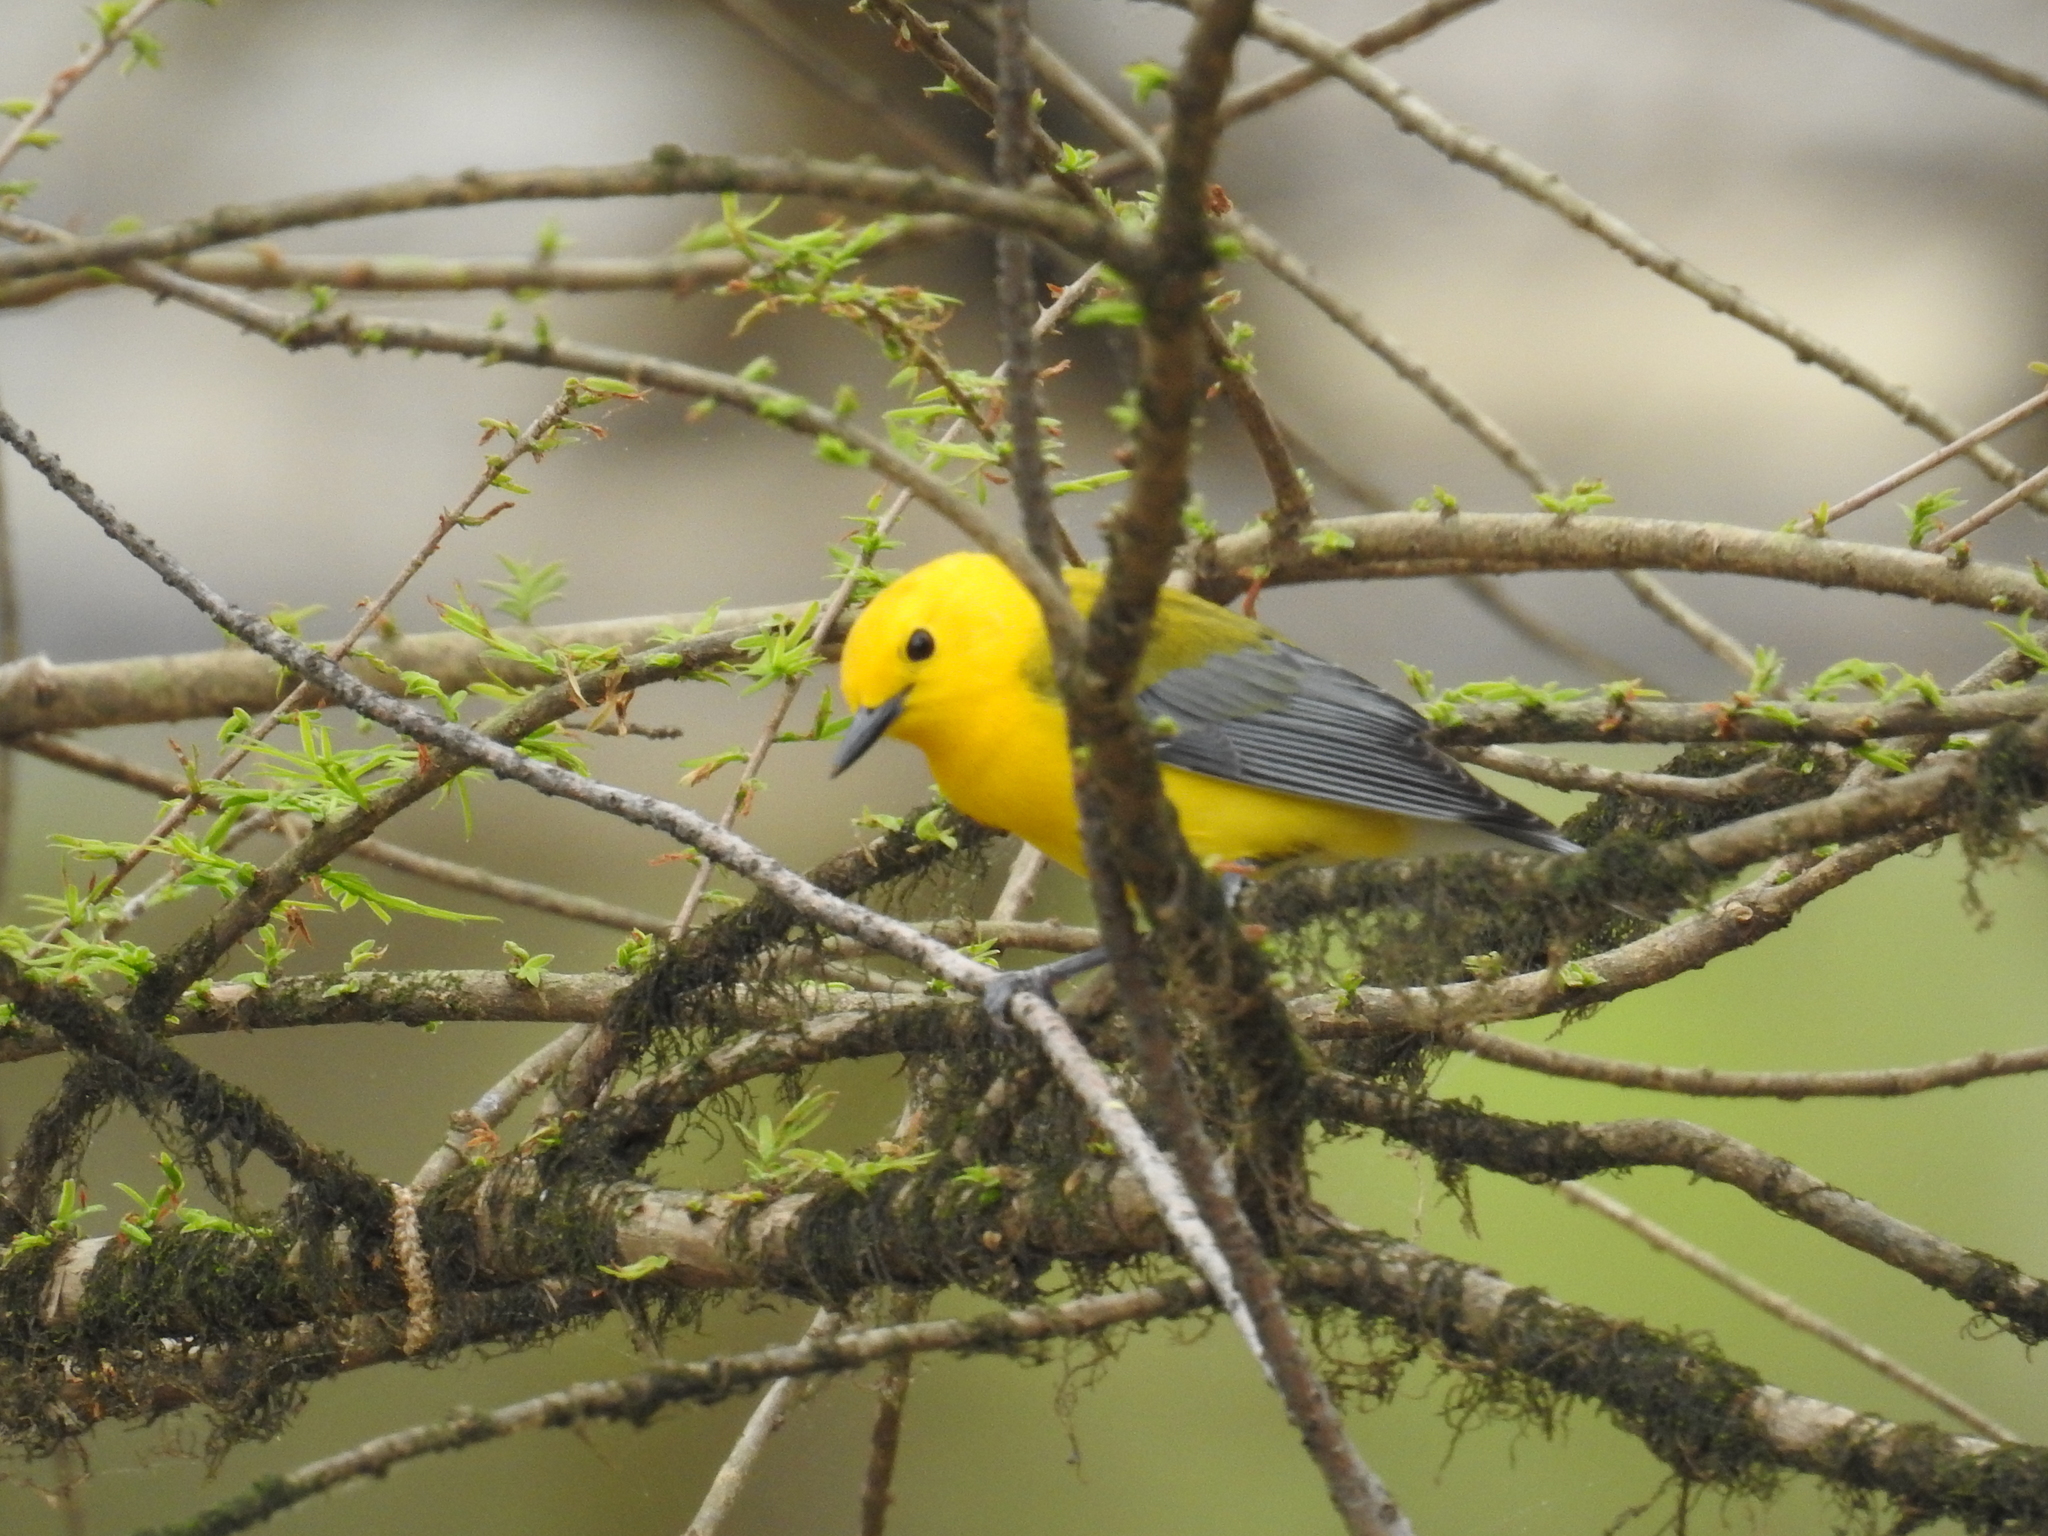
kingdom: Animalia
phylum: Chordata
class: Aves
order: Passeriformes
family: Parulidae
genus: Protonotaria
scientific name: Protonotaria citrea
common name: Prothonotary warbler
